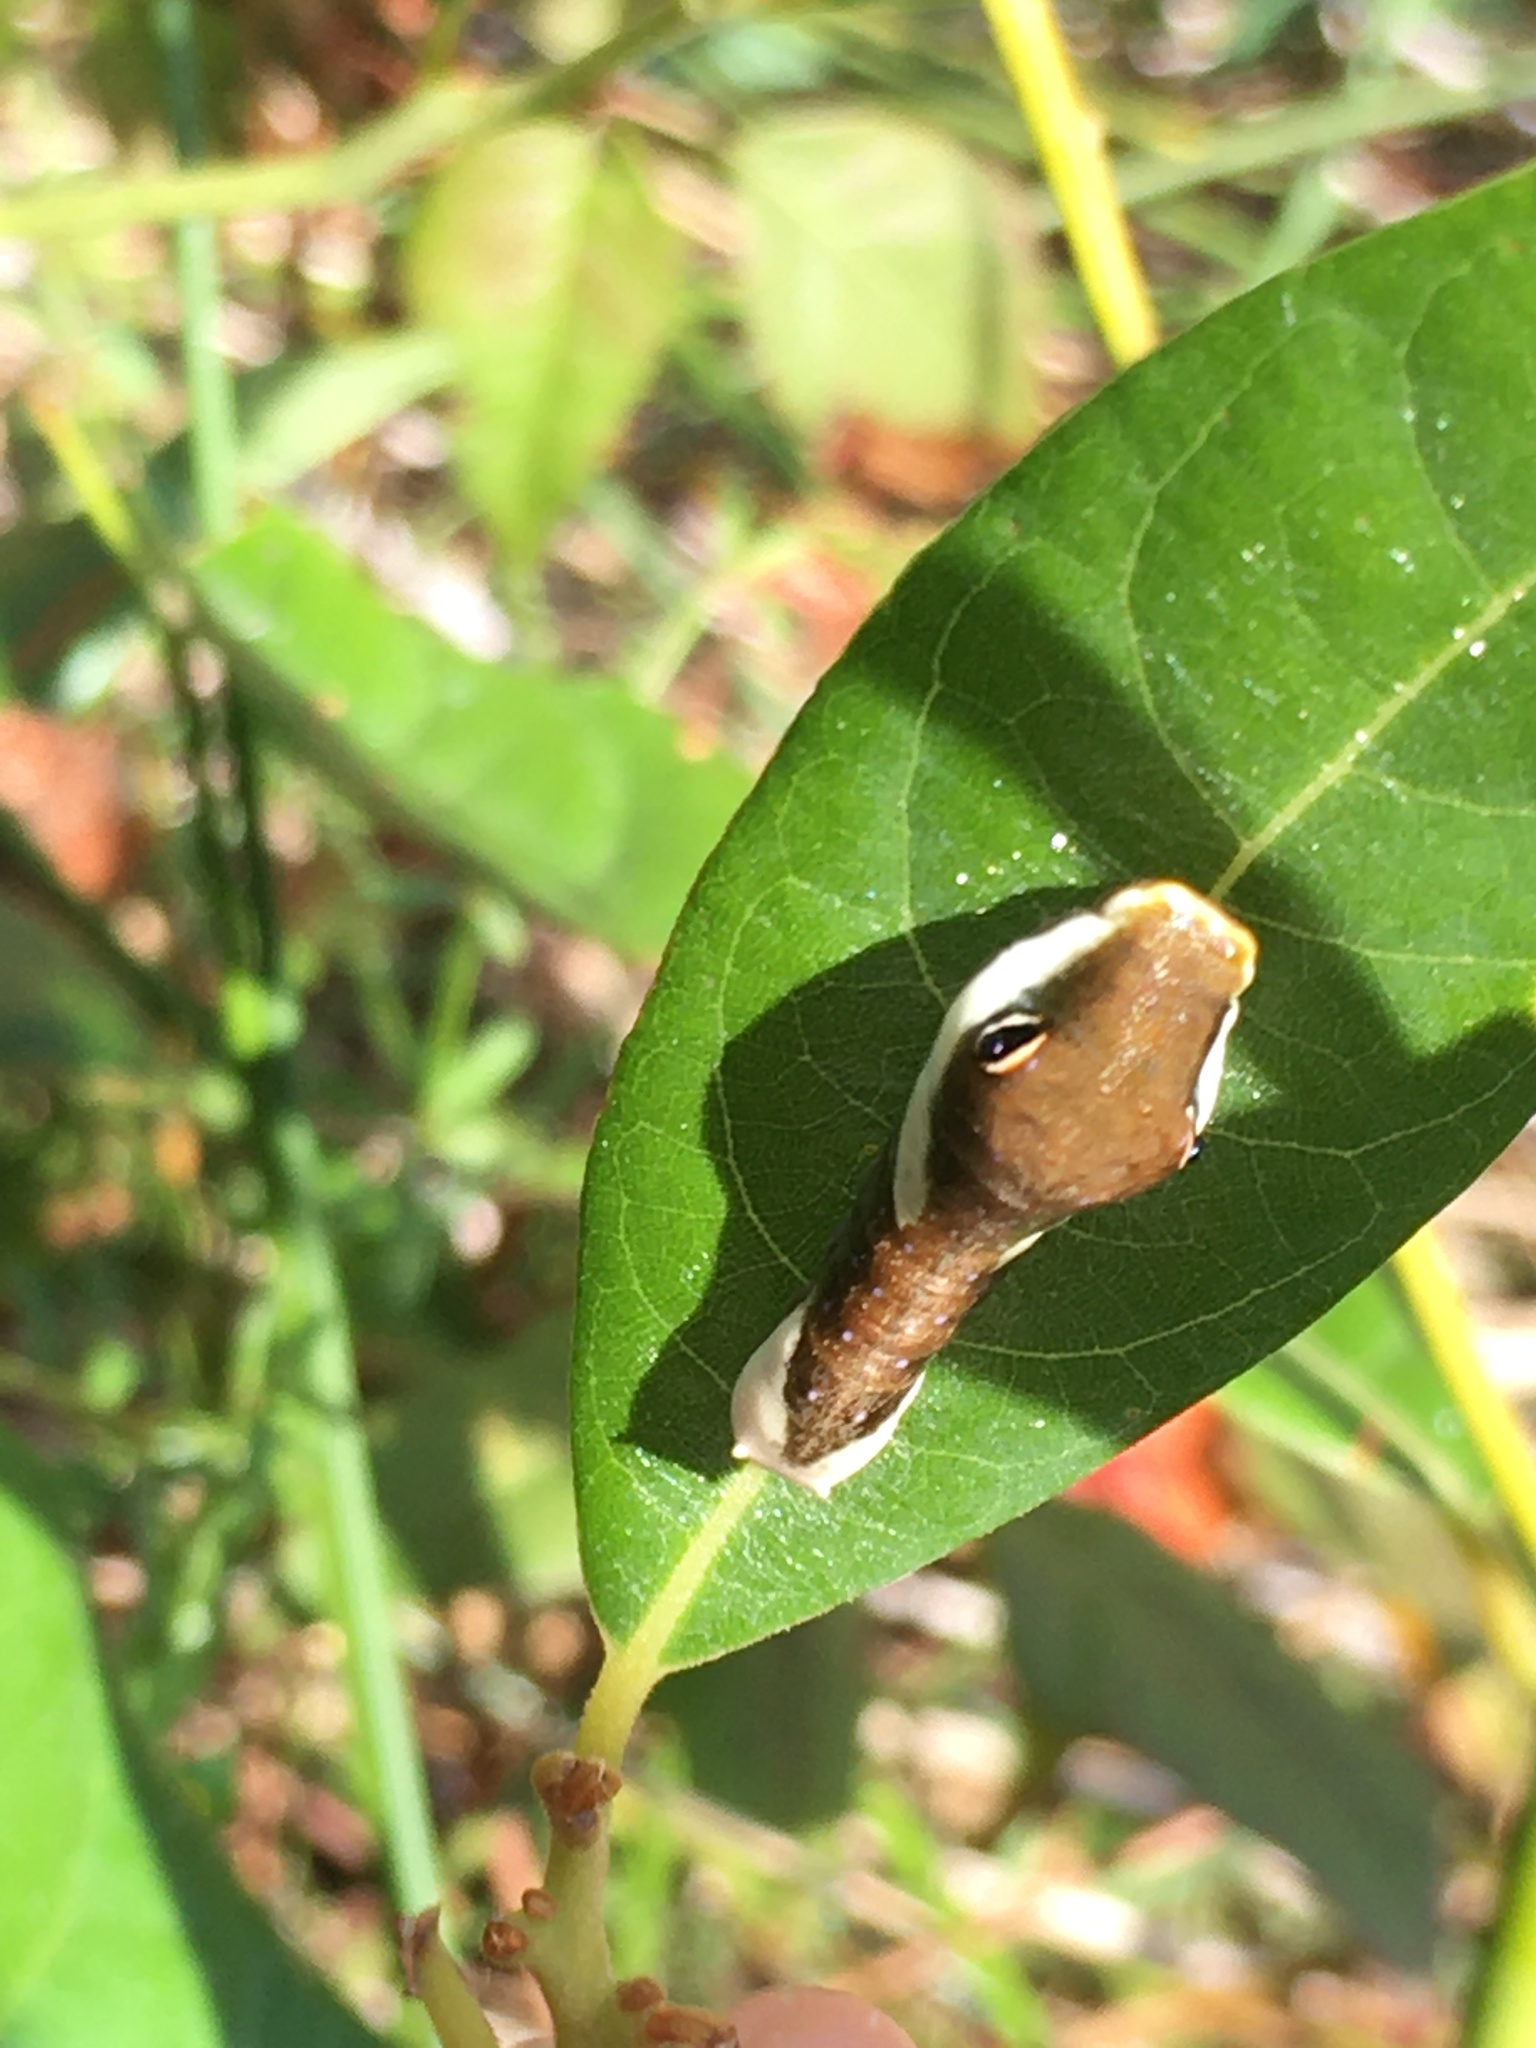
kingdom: Animalia
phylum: Arthropoda
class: Insecta
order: Lepidoptera
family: Papilionidae
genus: Papilio
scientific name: Papilio palamedes
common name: Palamedes swallowtail
